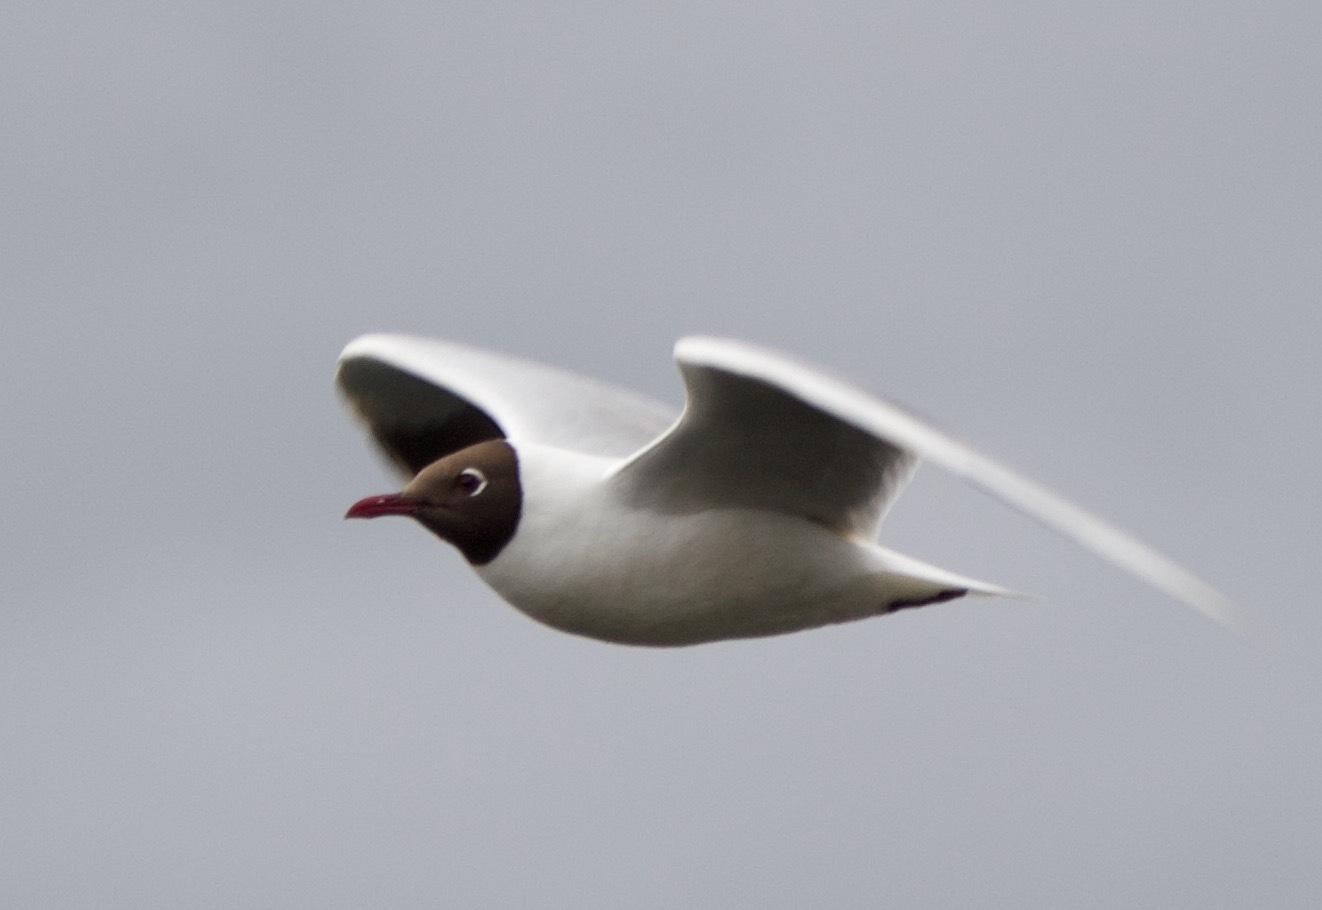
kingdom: Animalia
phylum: Chordata
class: Aves
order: Charadriiformes
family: Laridae
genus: Chroicocephalus
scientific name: Chroicocephalus maculipennis
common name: Brown-hooded gull
